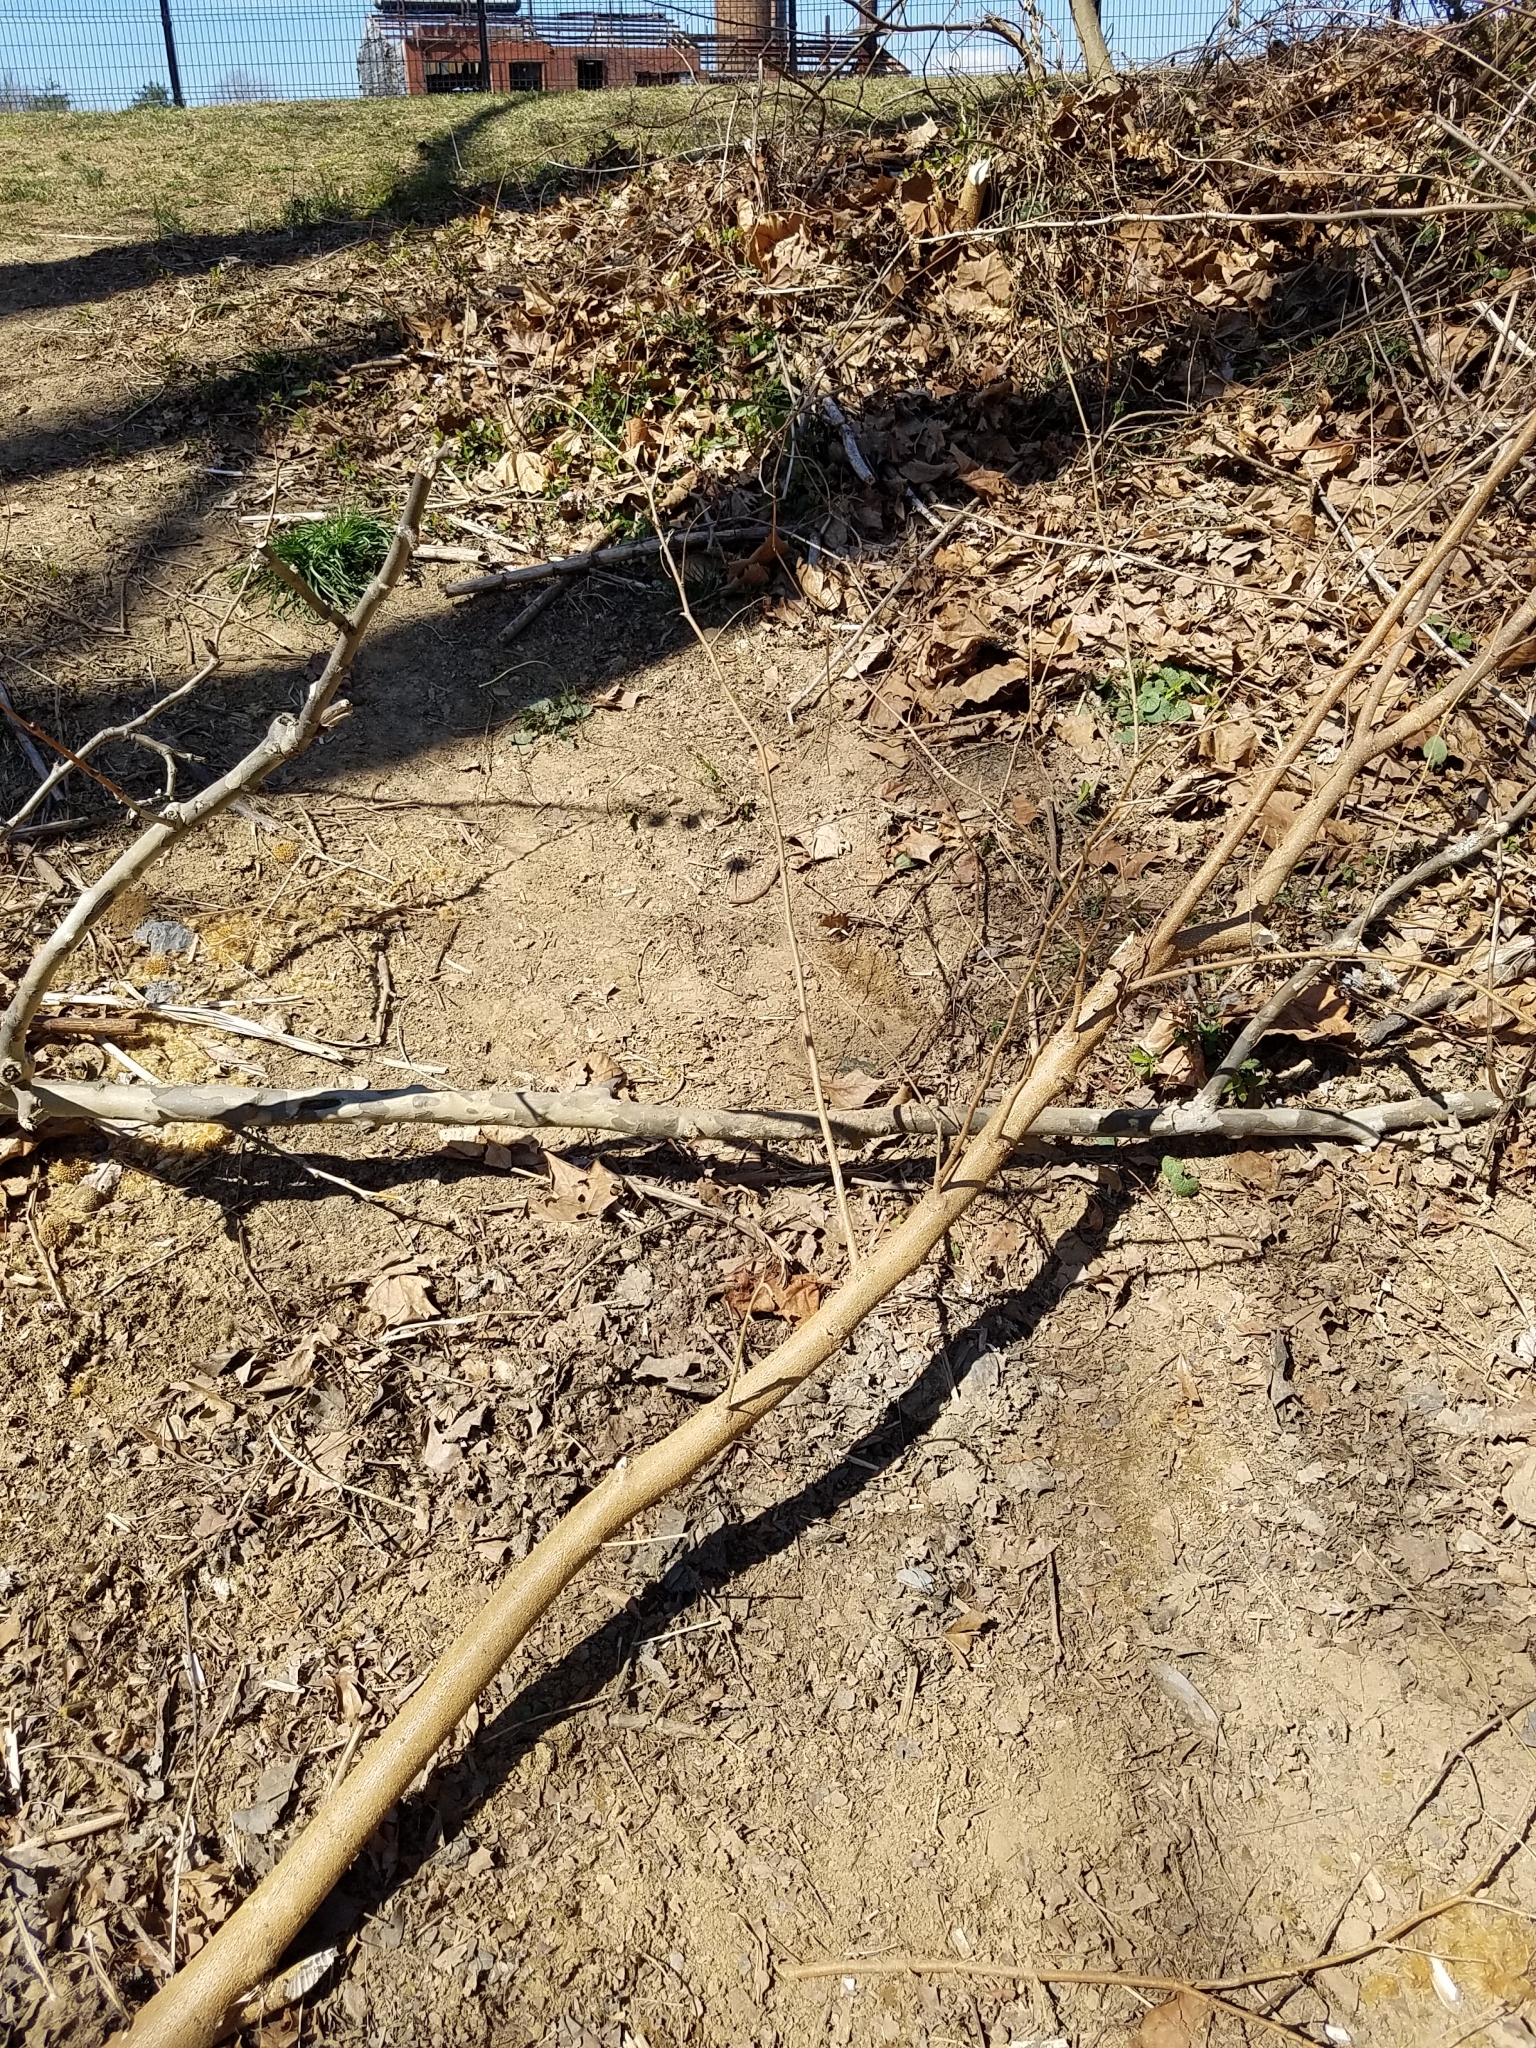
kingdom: Animalia
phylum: Chordata
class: Mammalia
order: Rodentia
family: Castoridae
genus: Castor
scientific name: Castor canadensis
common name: American beaver
